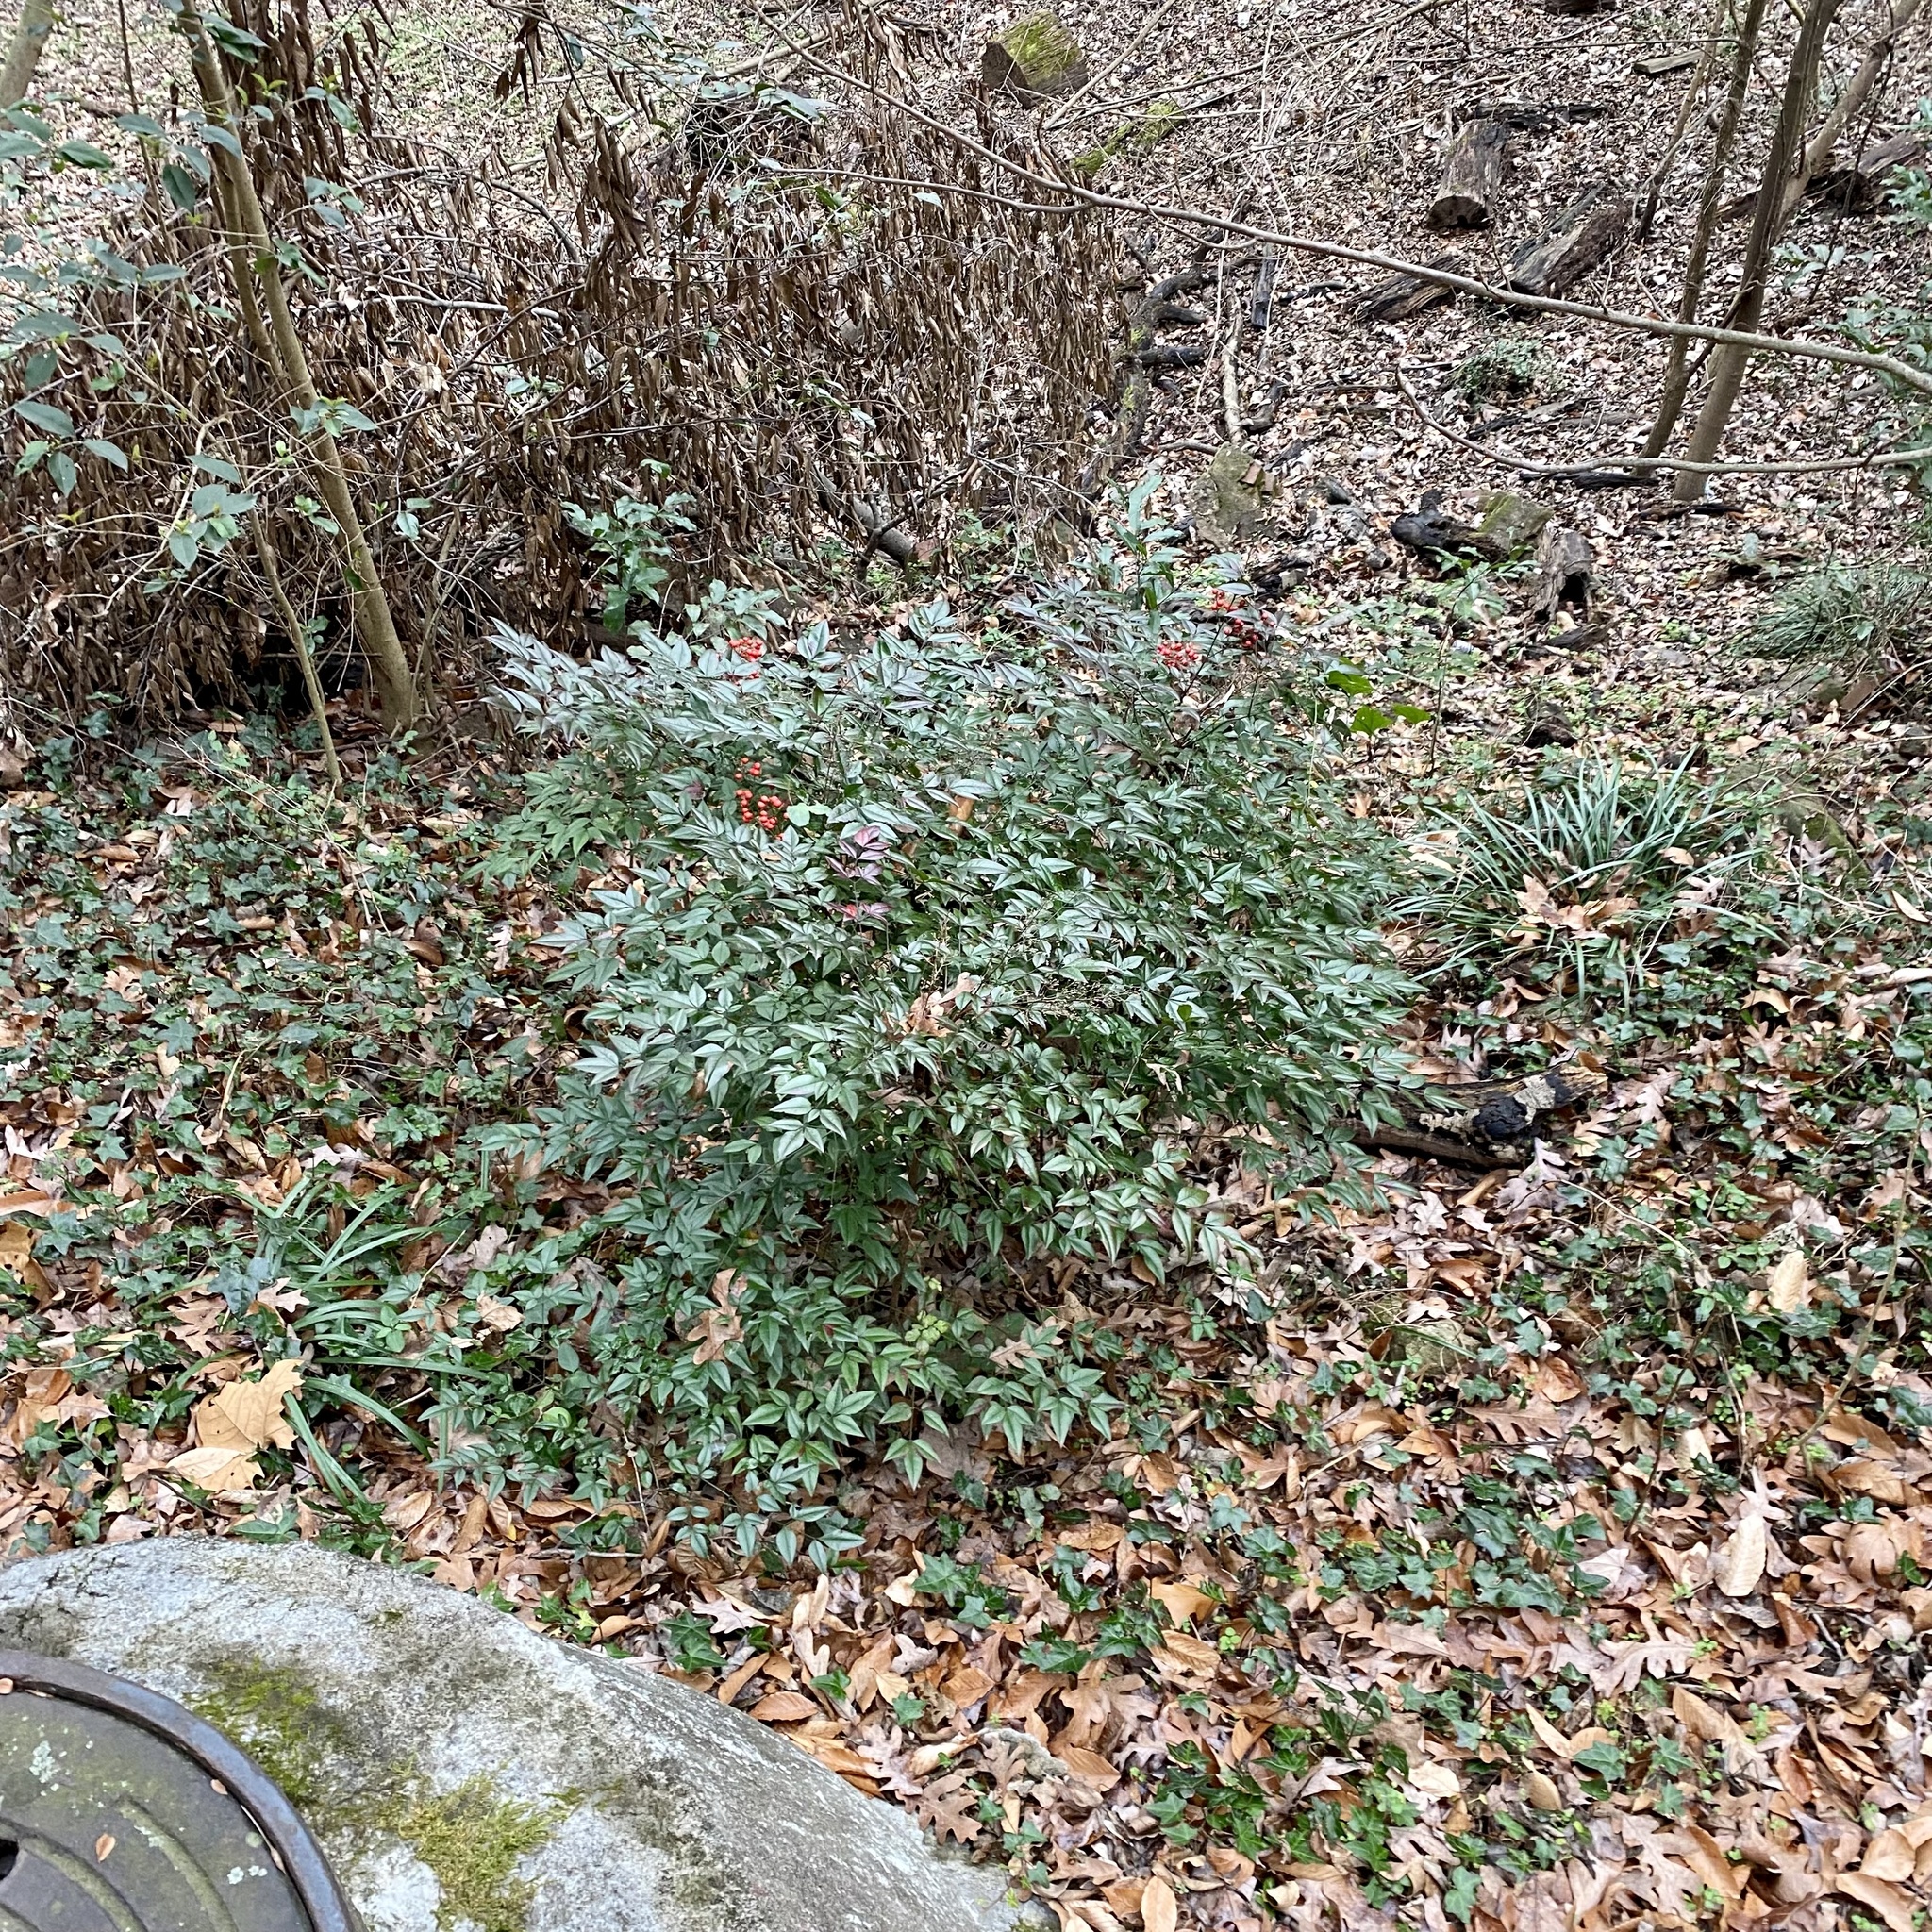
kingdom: Plantae
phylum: Tracheophyta
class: Magnoliopsida
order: Ranunculales
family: Berberidaceae
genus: Nandina
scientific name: Nandina domestica
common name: Sacred bamboo
